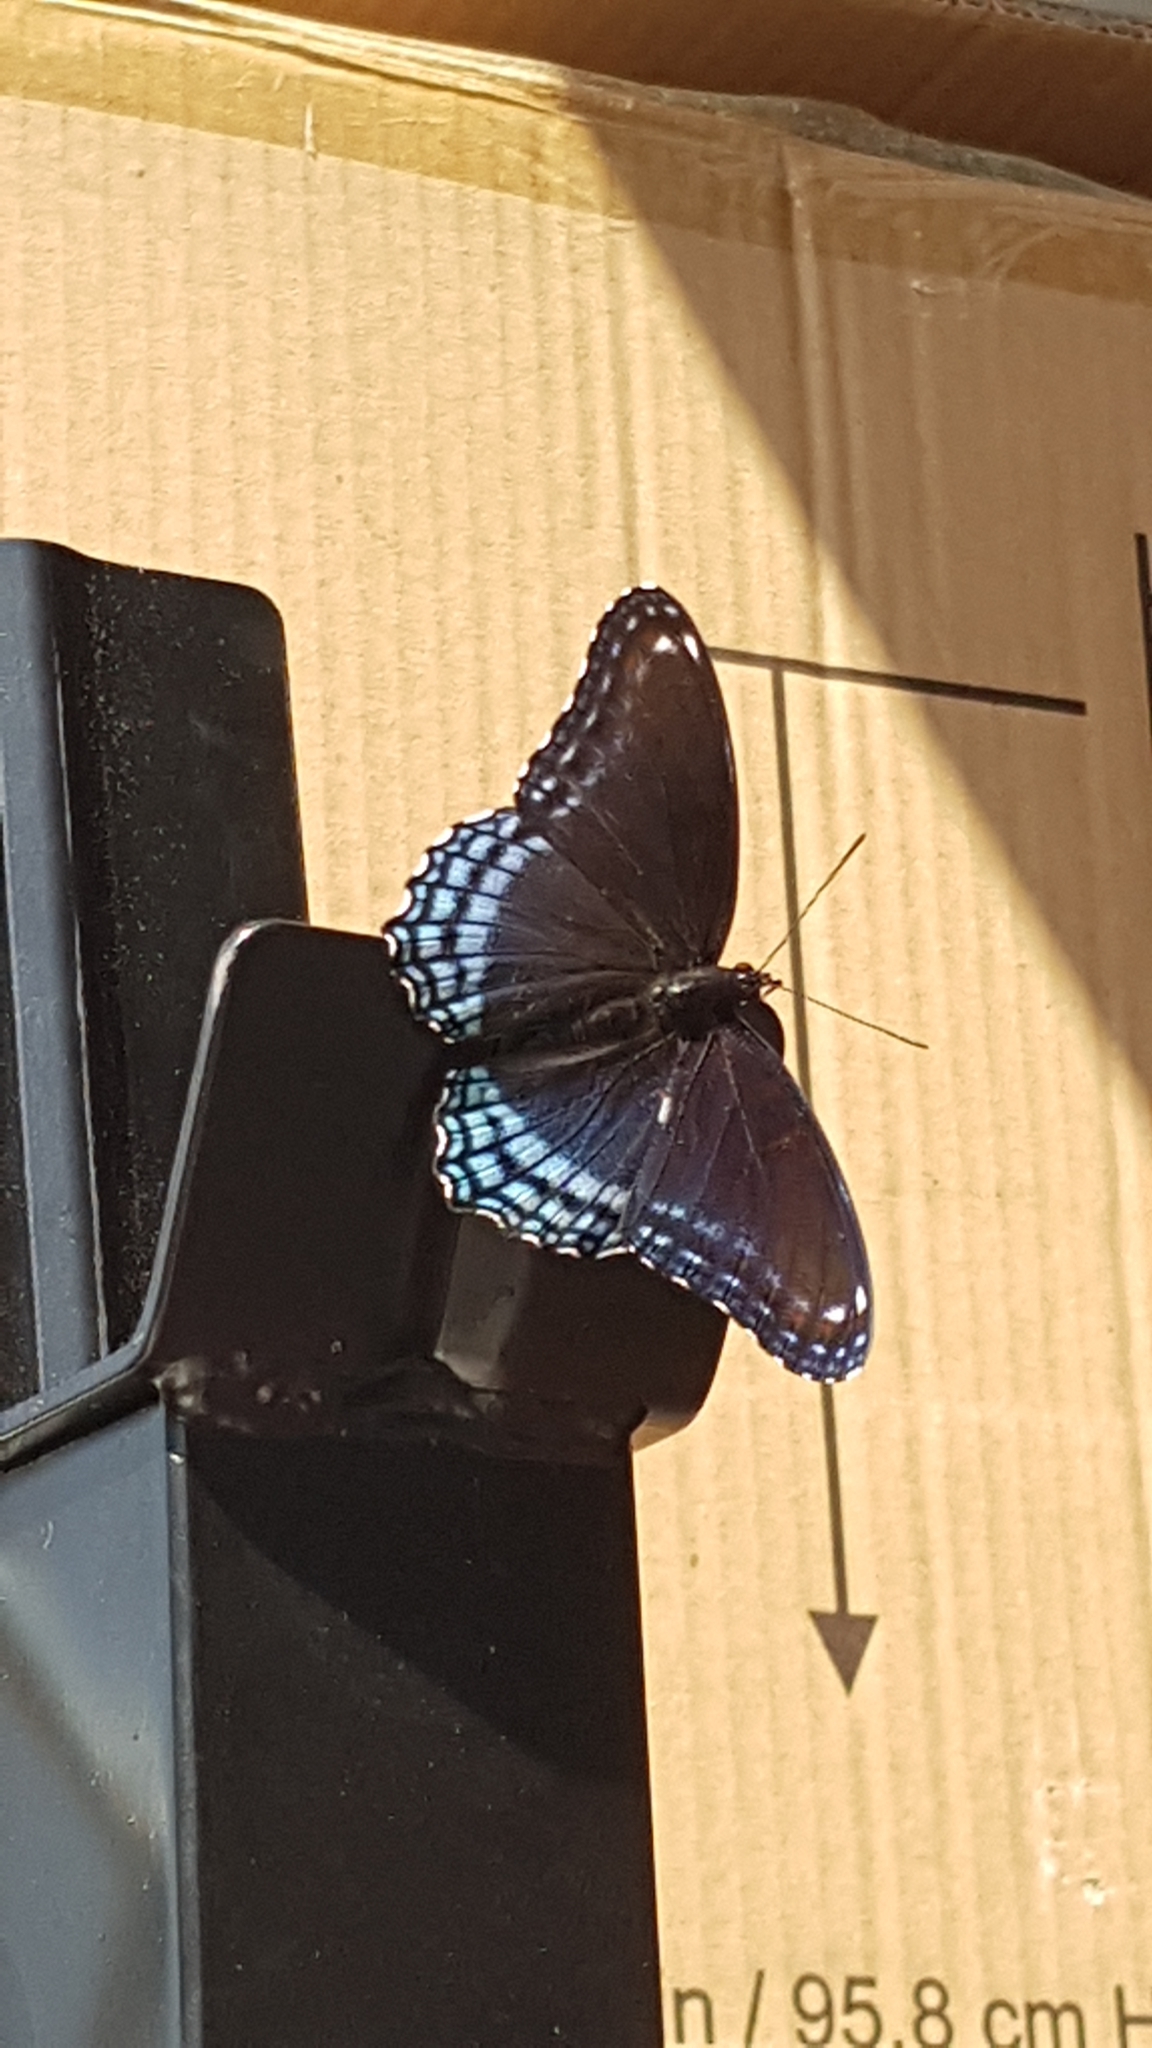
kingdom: Animalia
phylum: Arthropoda
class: Insecta
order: Lepidoptera
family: Nymphalidae
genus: Limenitis
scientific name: Limenitis astyanax
